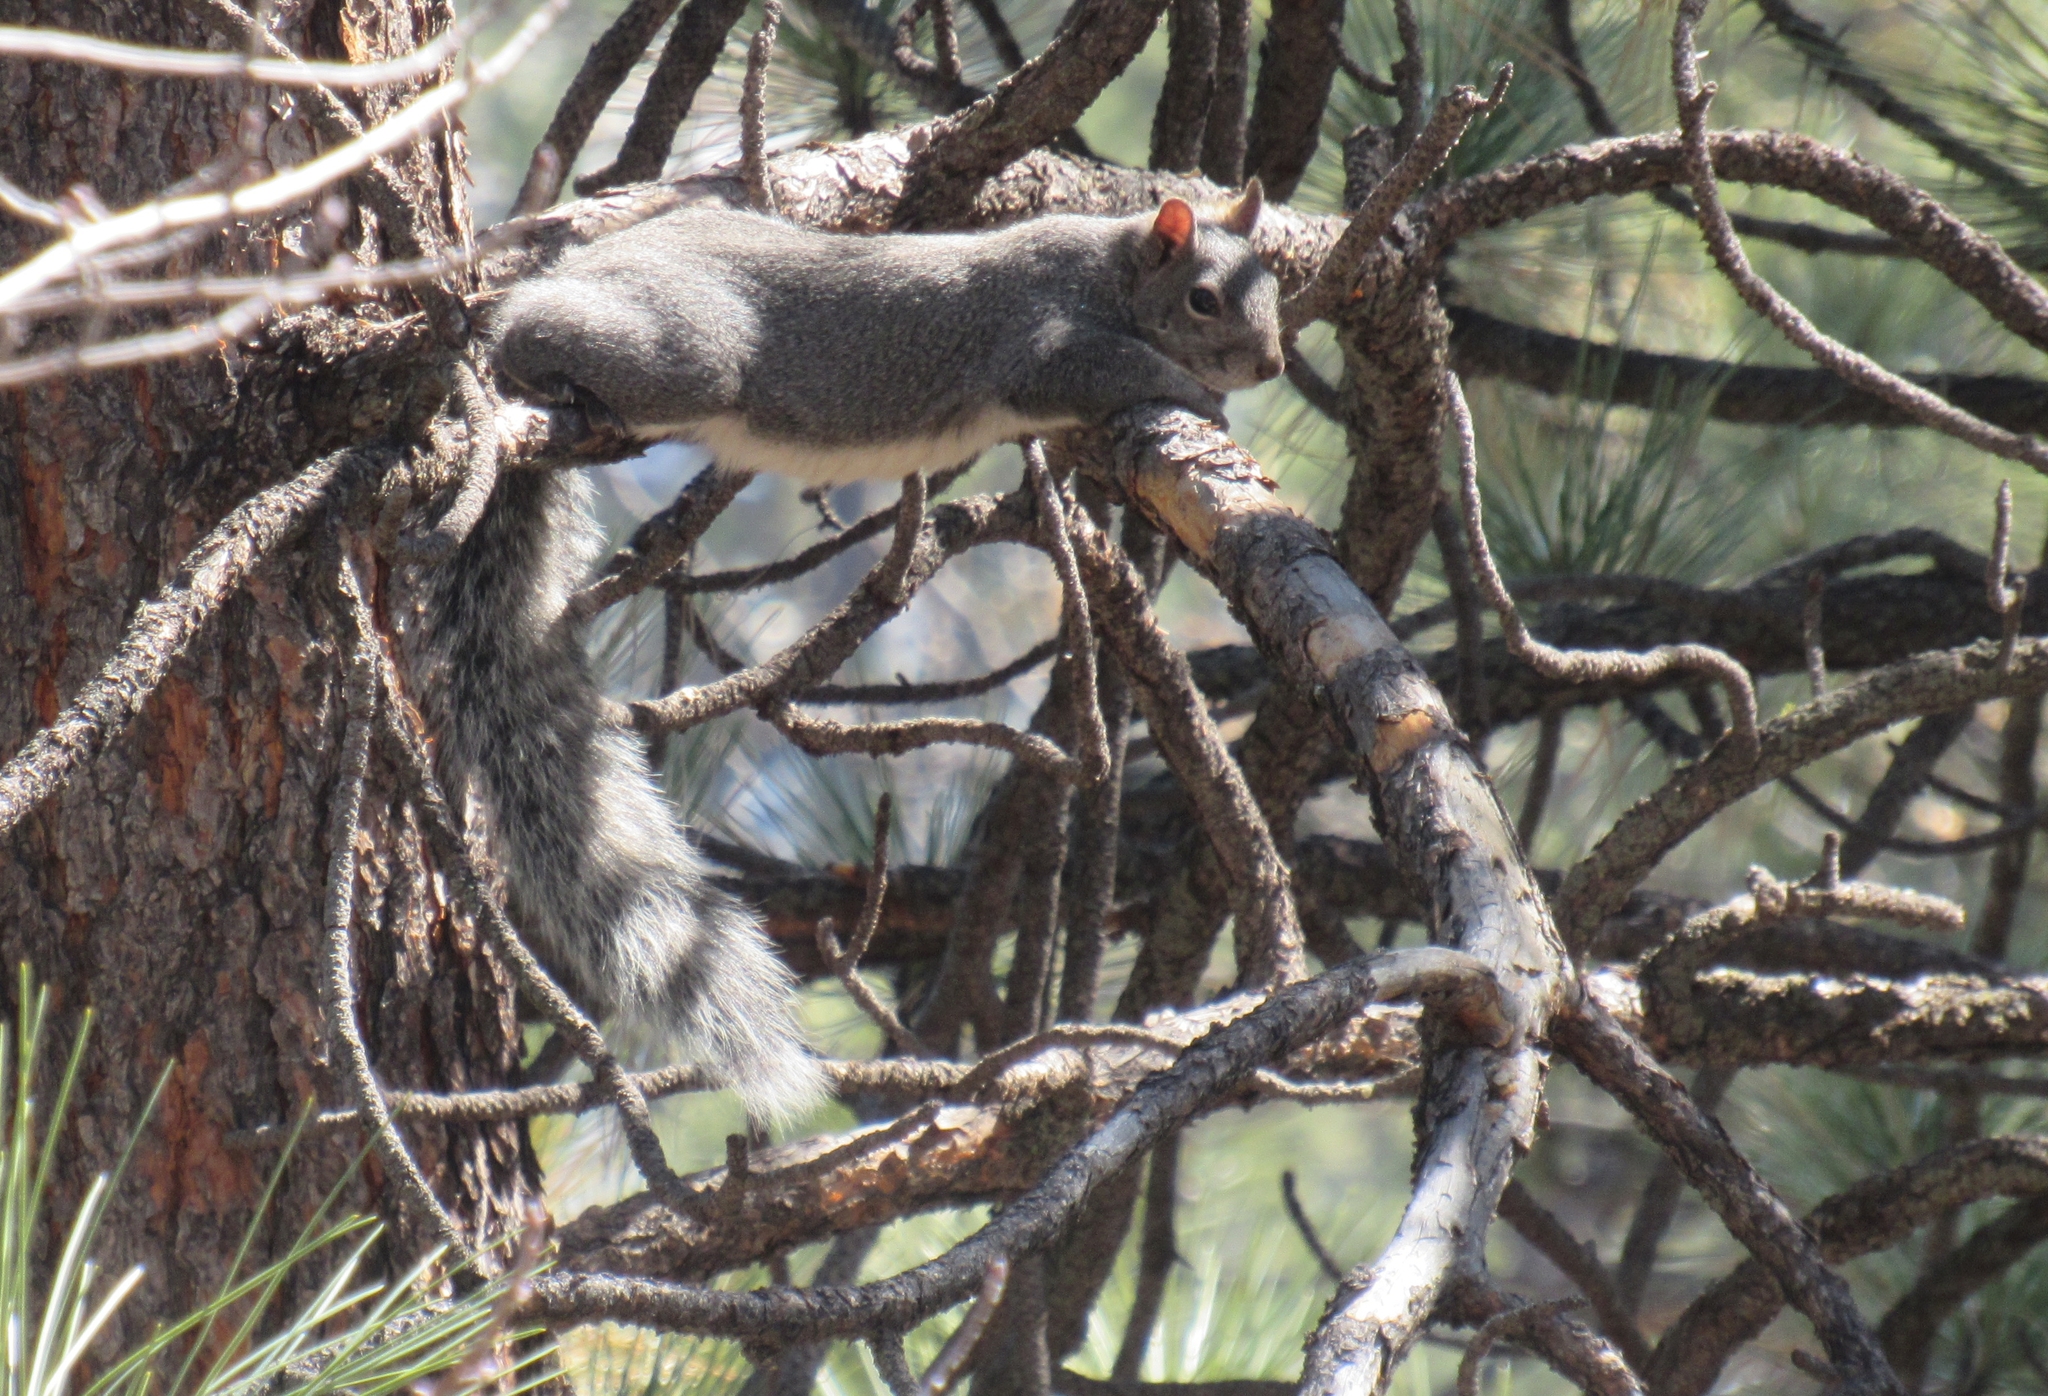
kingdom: Animalia
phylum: Chordata
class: Mammalia
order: Rodentia
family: Sciuridae
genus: Sciurus
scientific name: Sciurus griseus
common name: Western gray squirrel
